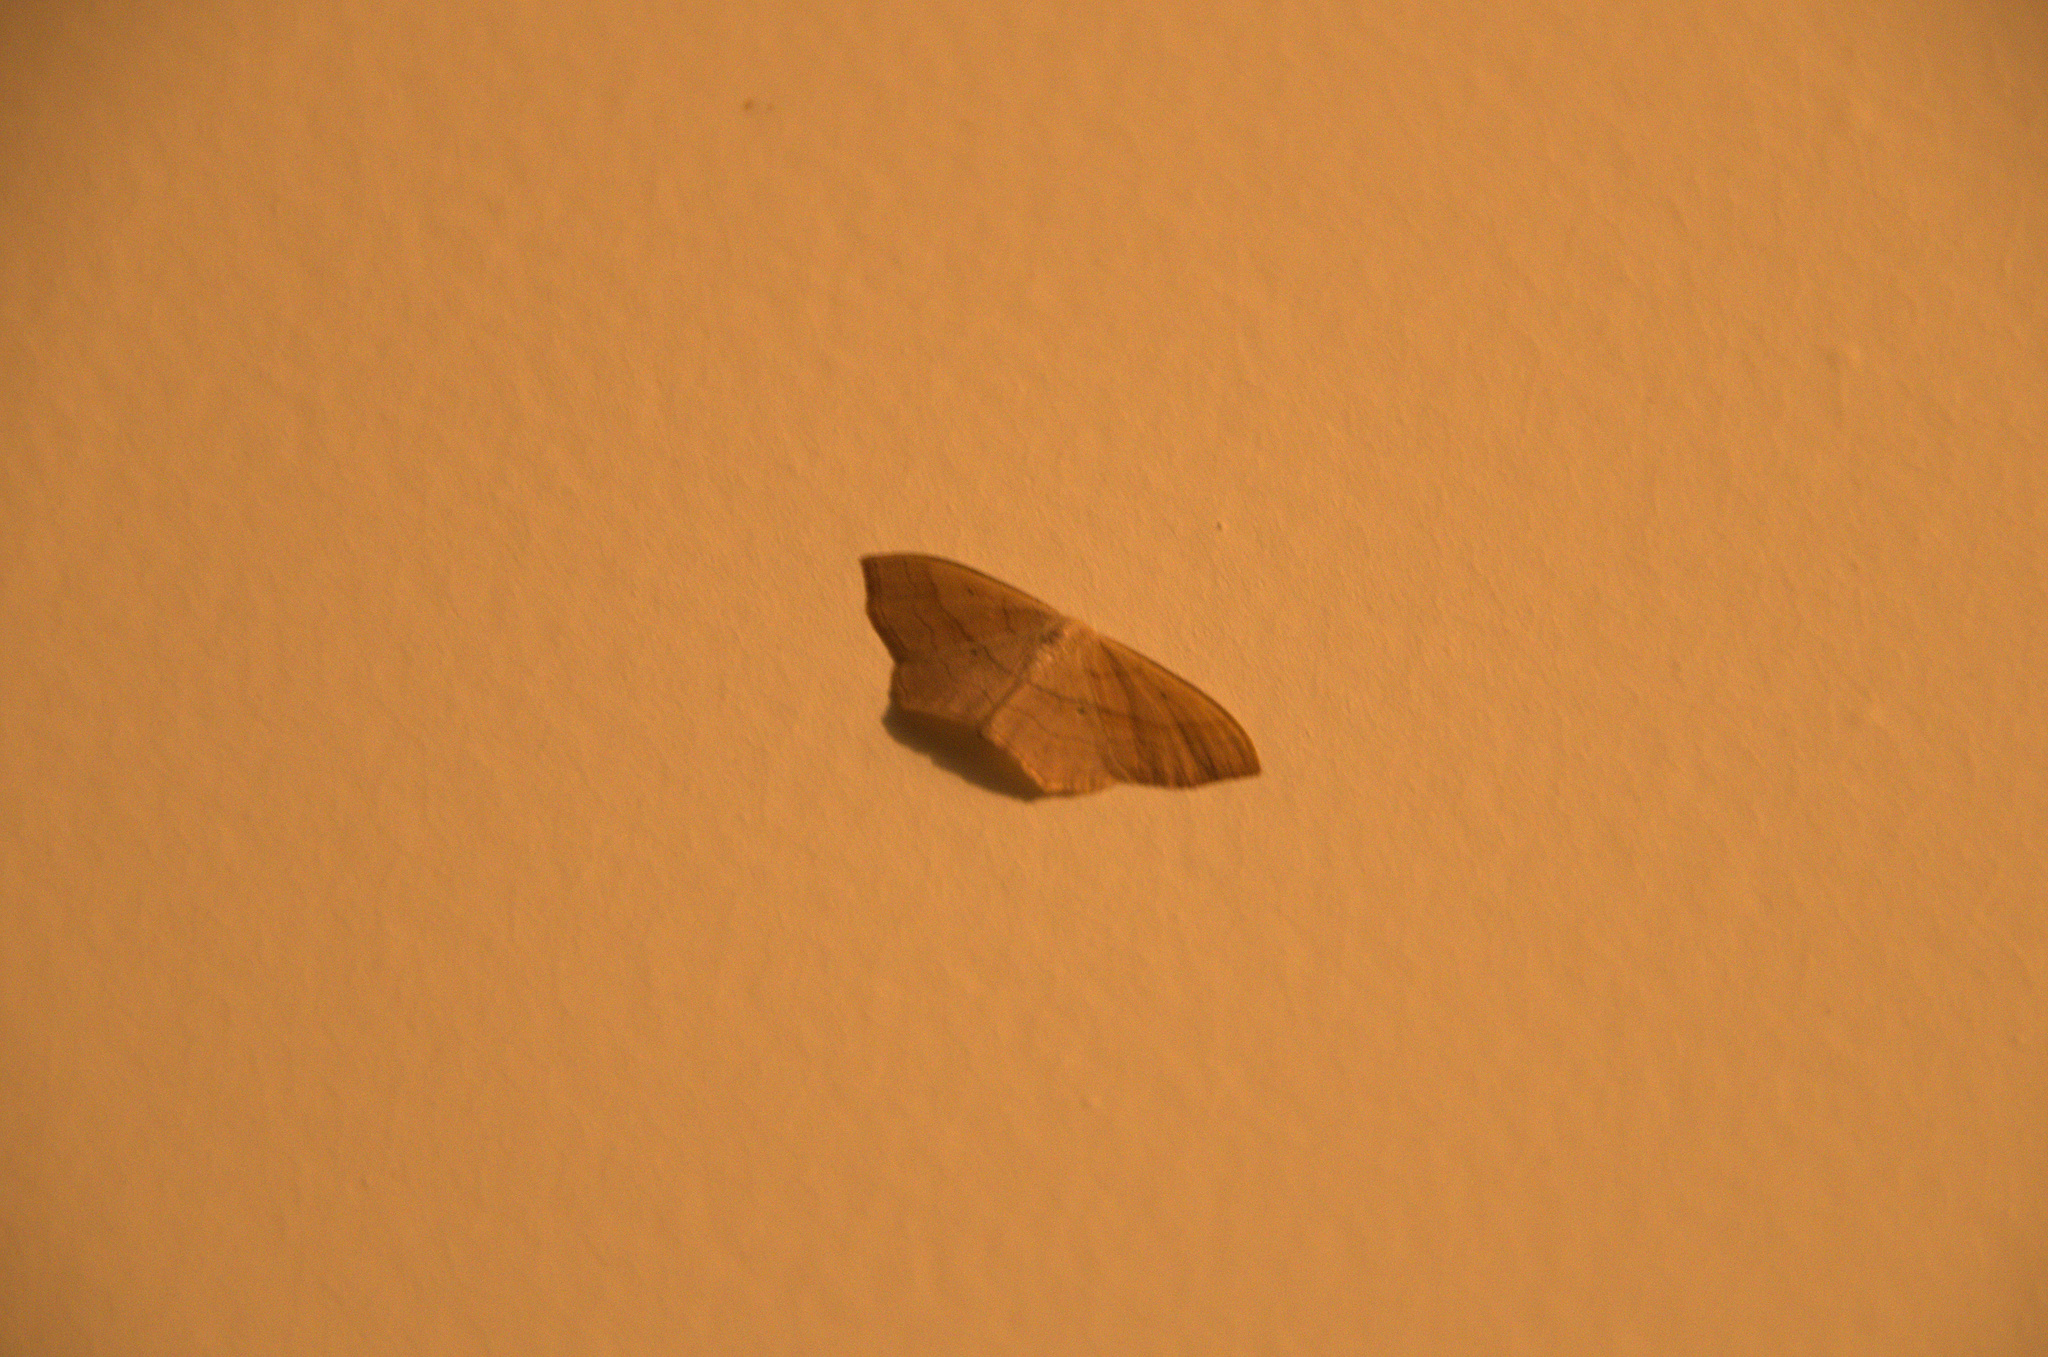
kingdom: Animalia
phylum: Arthropoda
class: Insecta
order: Lepidoptera
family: Geometridae
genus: Scopula
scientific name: Scopula imitaria
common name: Small blood-vein
